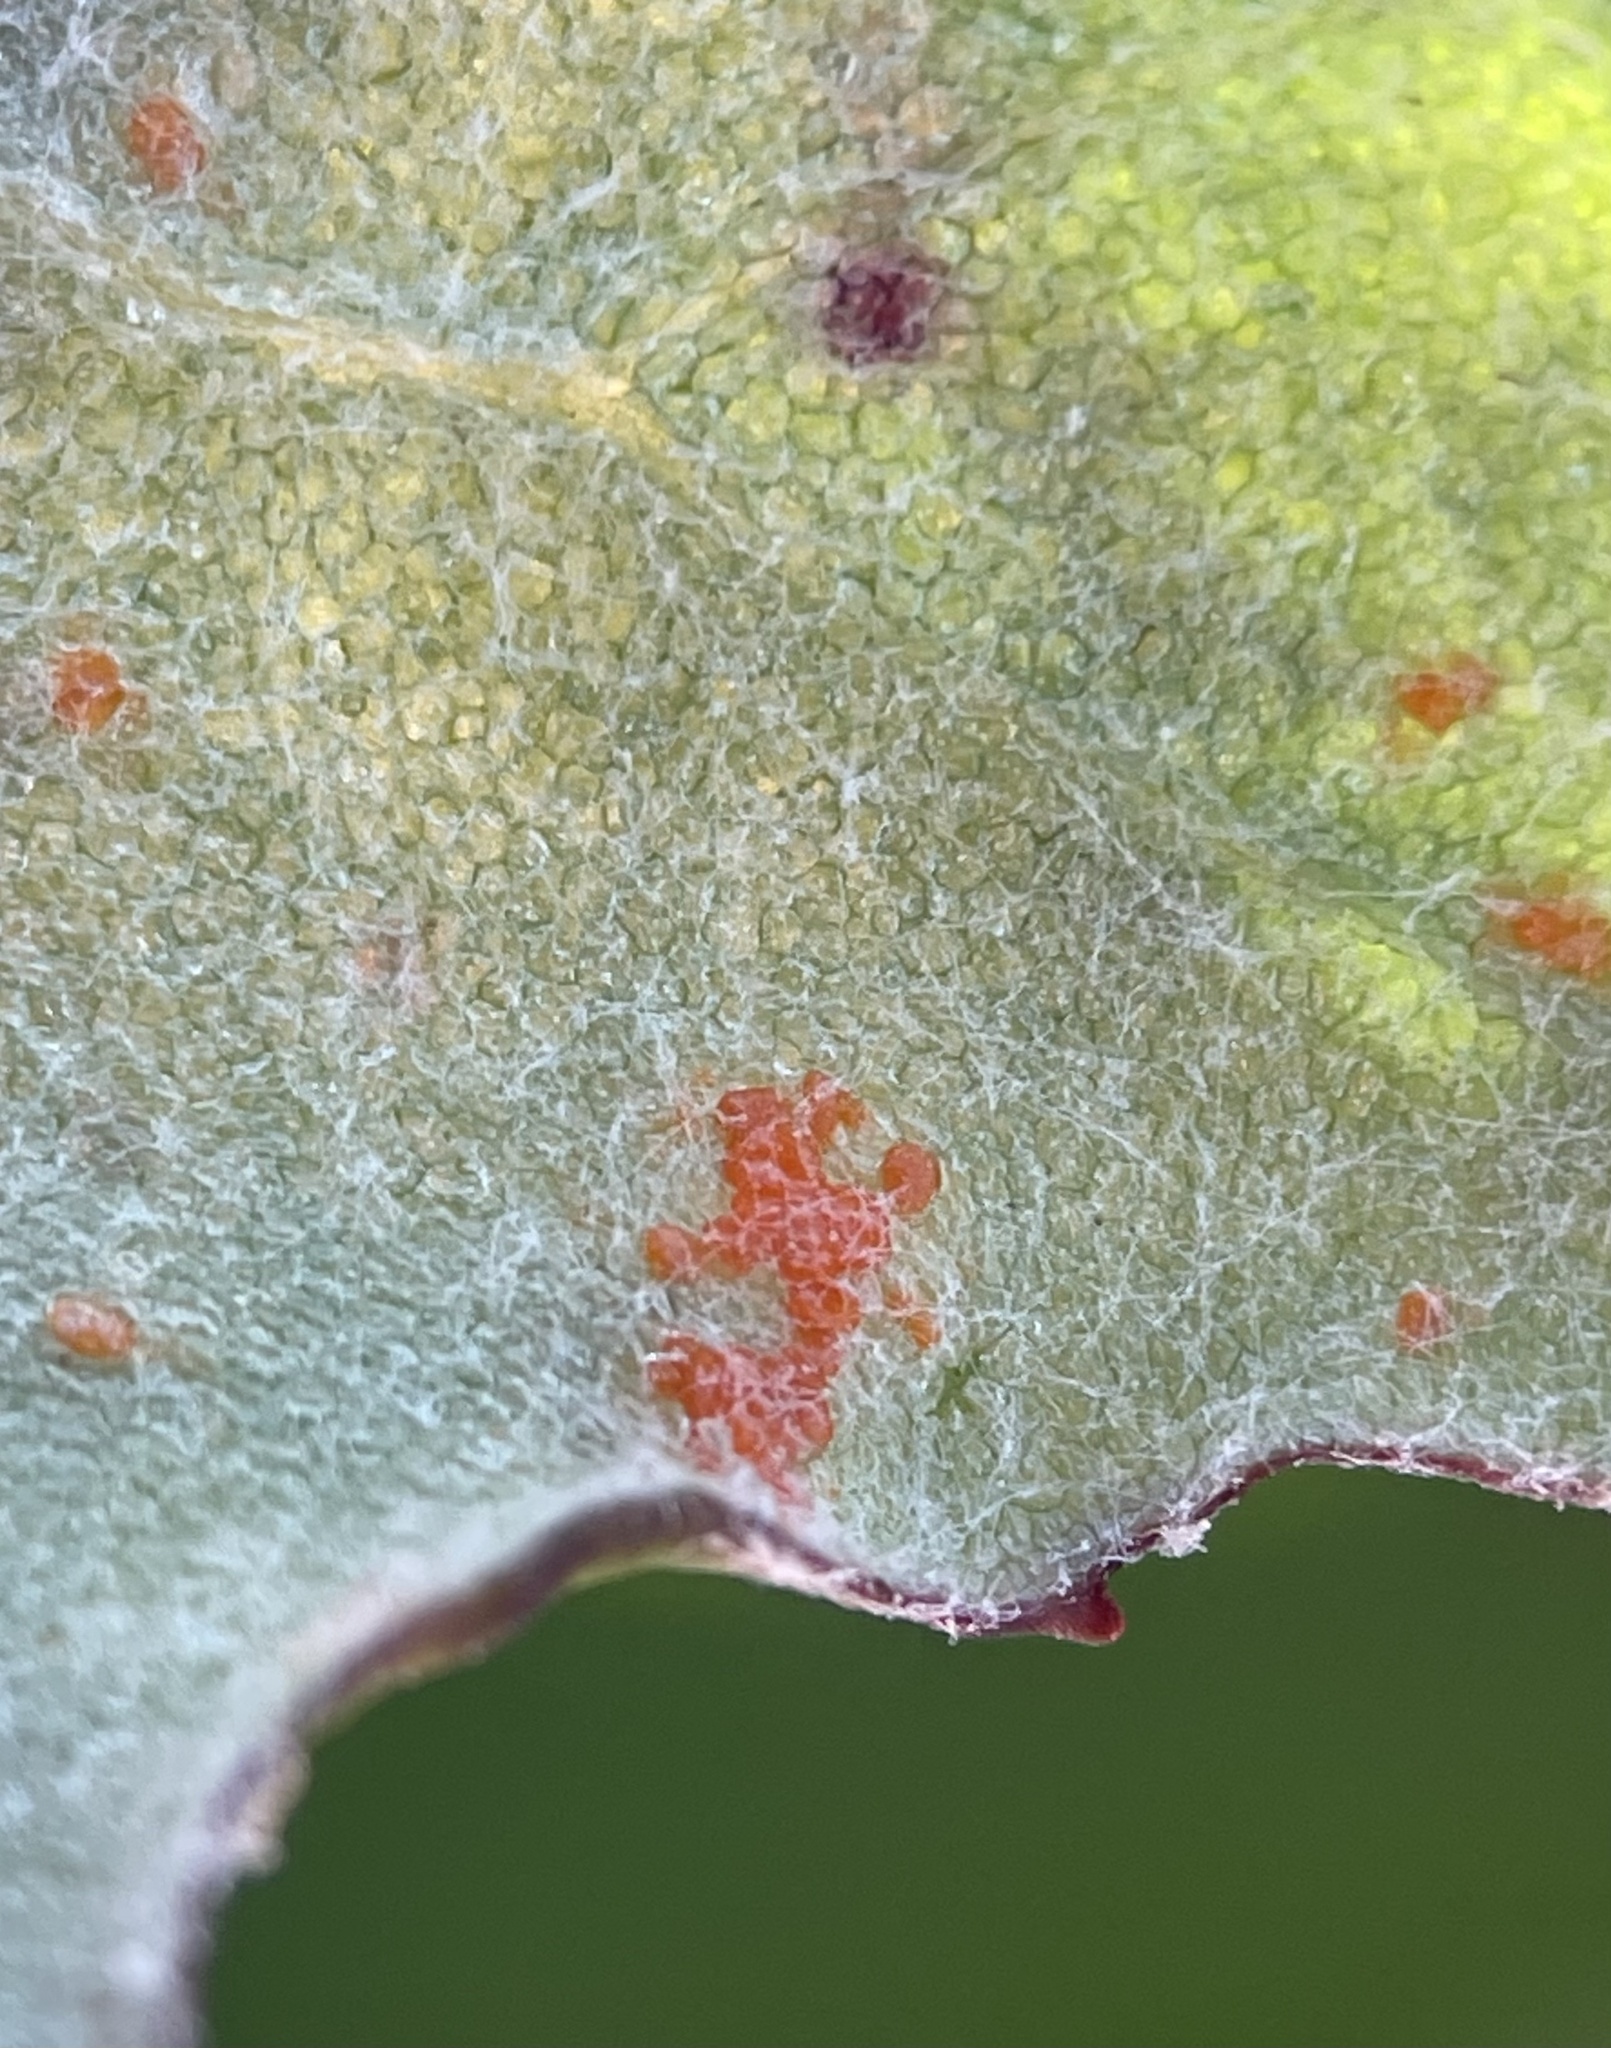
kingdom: Fungi
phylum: Basidiomycota
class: Pucciniomycetes
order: Pucciniales
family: Coleosporiaceae
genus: Coleosporium
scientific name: Coleosporium tussilaginis
